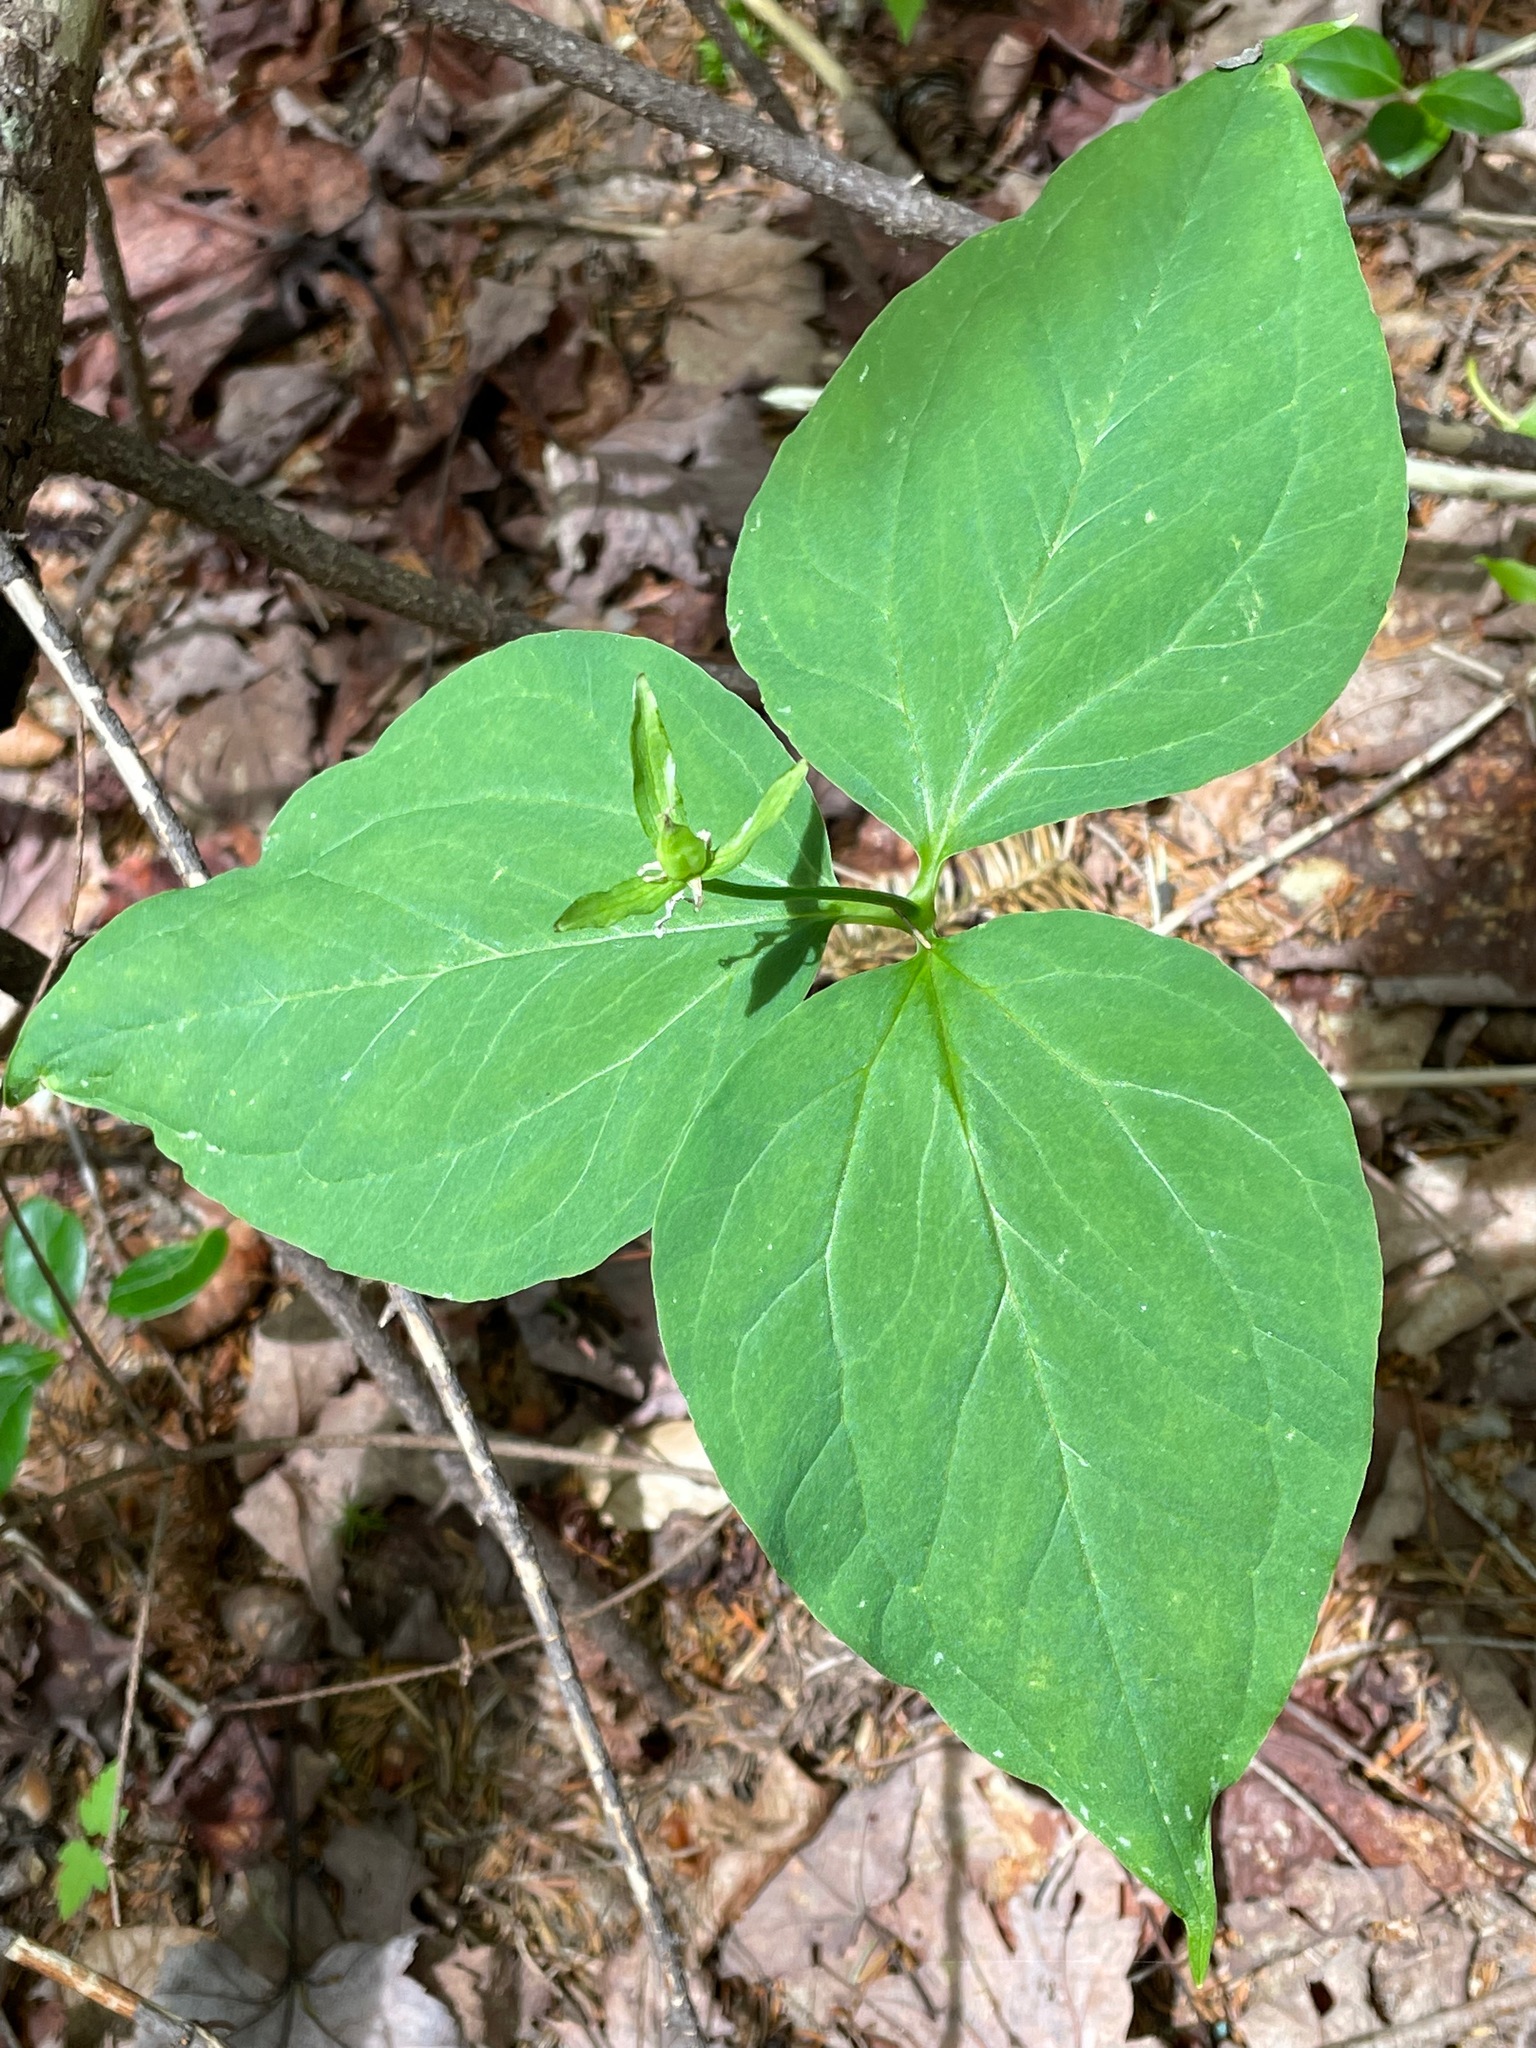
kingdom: Plantae
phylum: Tracheophyta
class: Liliopsida
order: Liliales
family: Melanthiaceae
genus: Trillium
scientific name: Trillium undulatum
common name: Paint trillium
